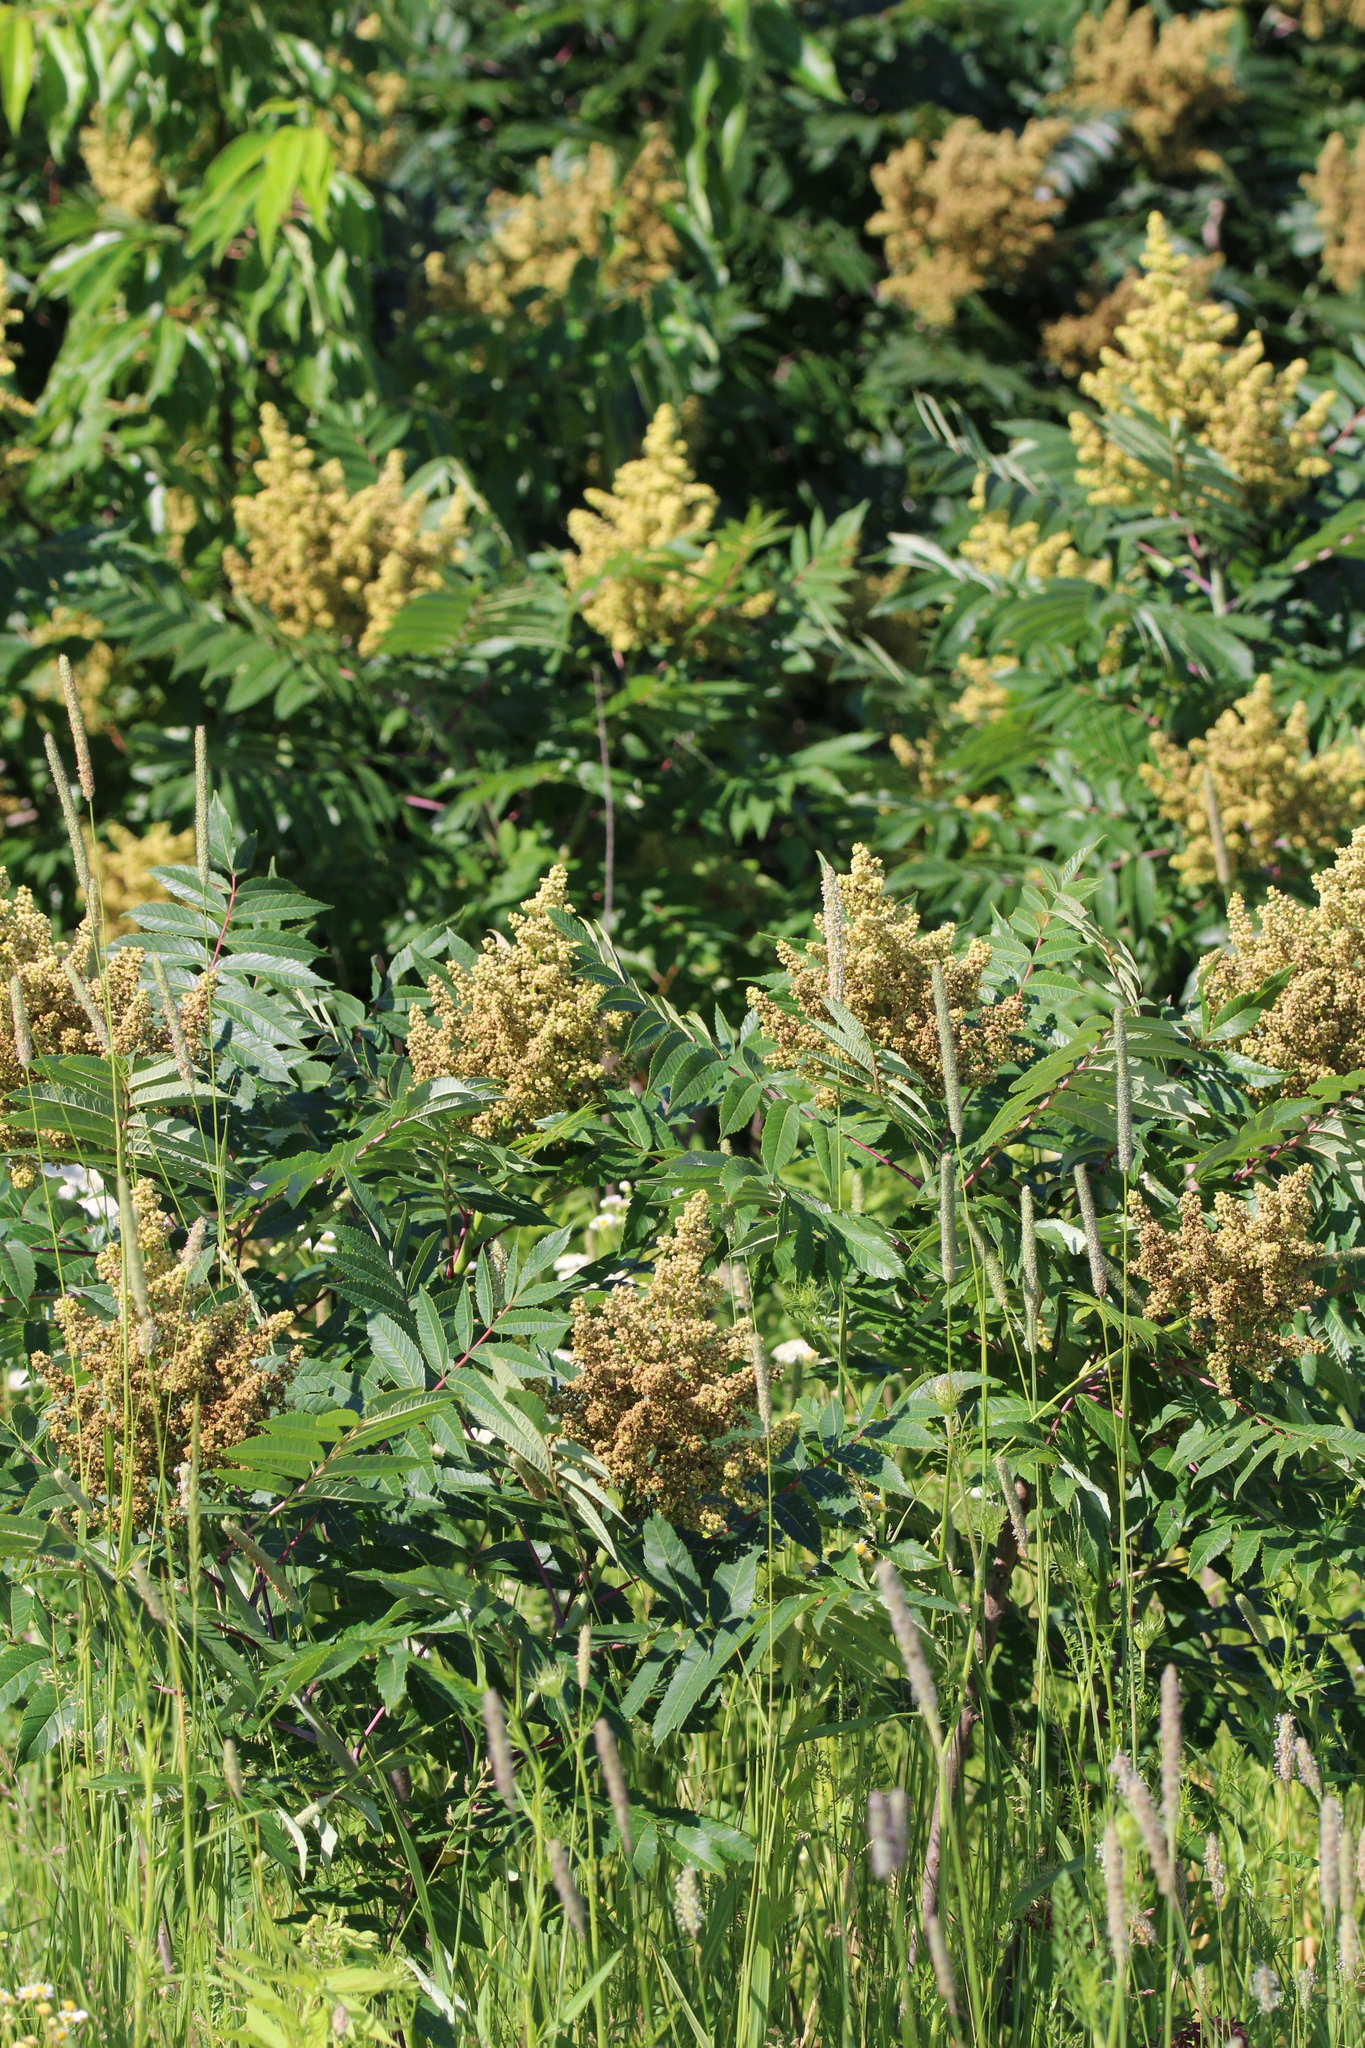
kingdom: Plantae
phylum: Tracheophyta
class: Magnoliopsida
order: Sapindales
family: Anacardiaceae
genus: Rhus
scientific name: Rhus glabra
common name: Scarlet sumac
